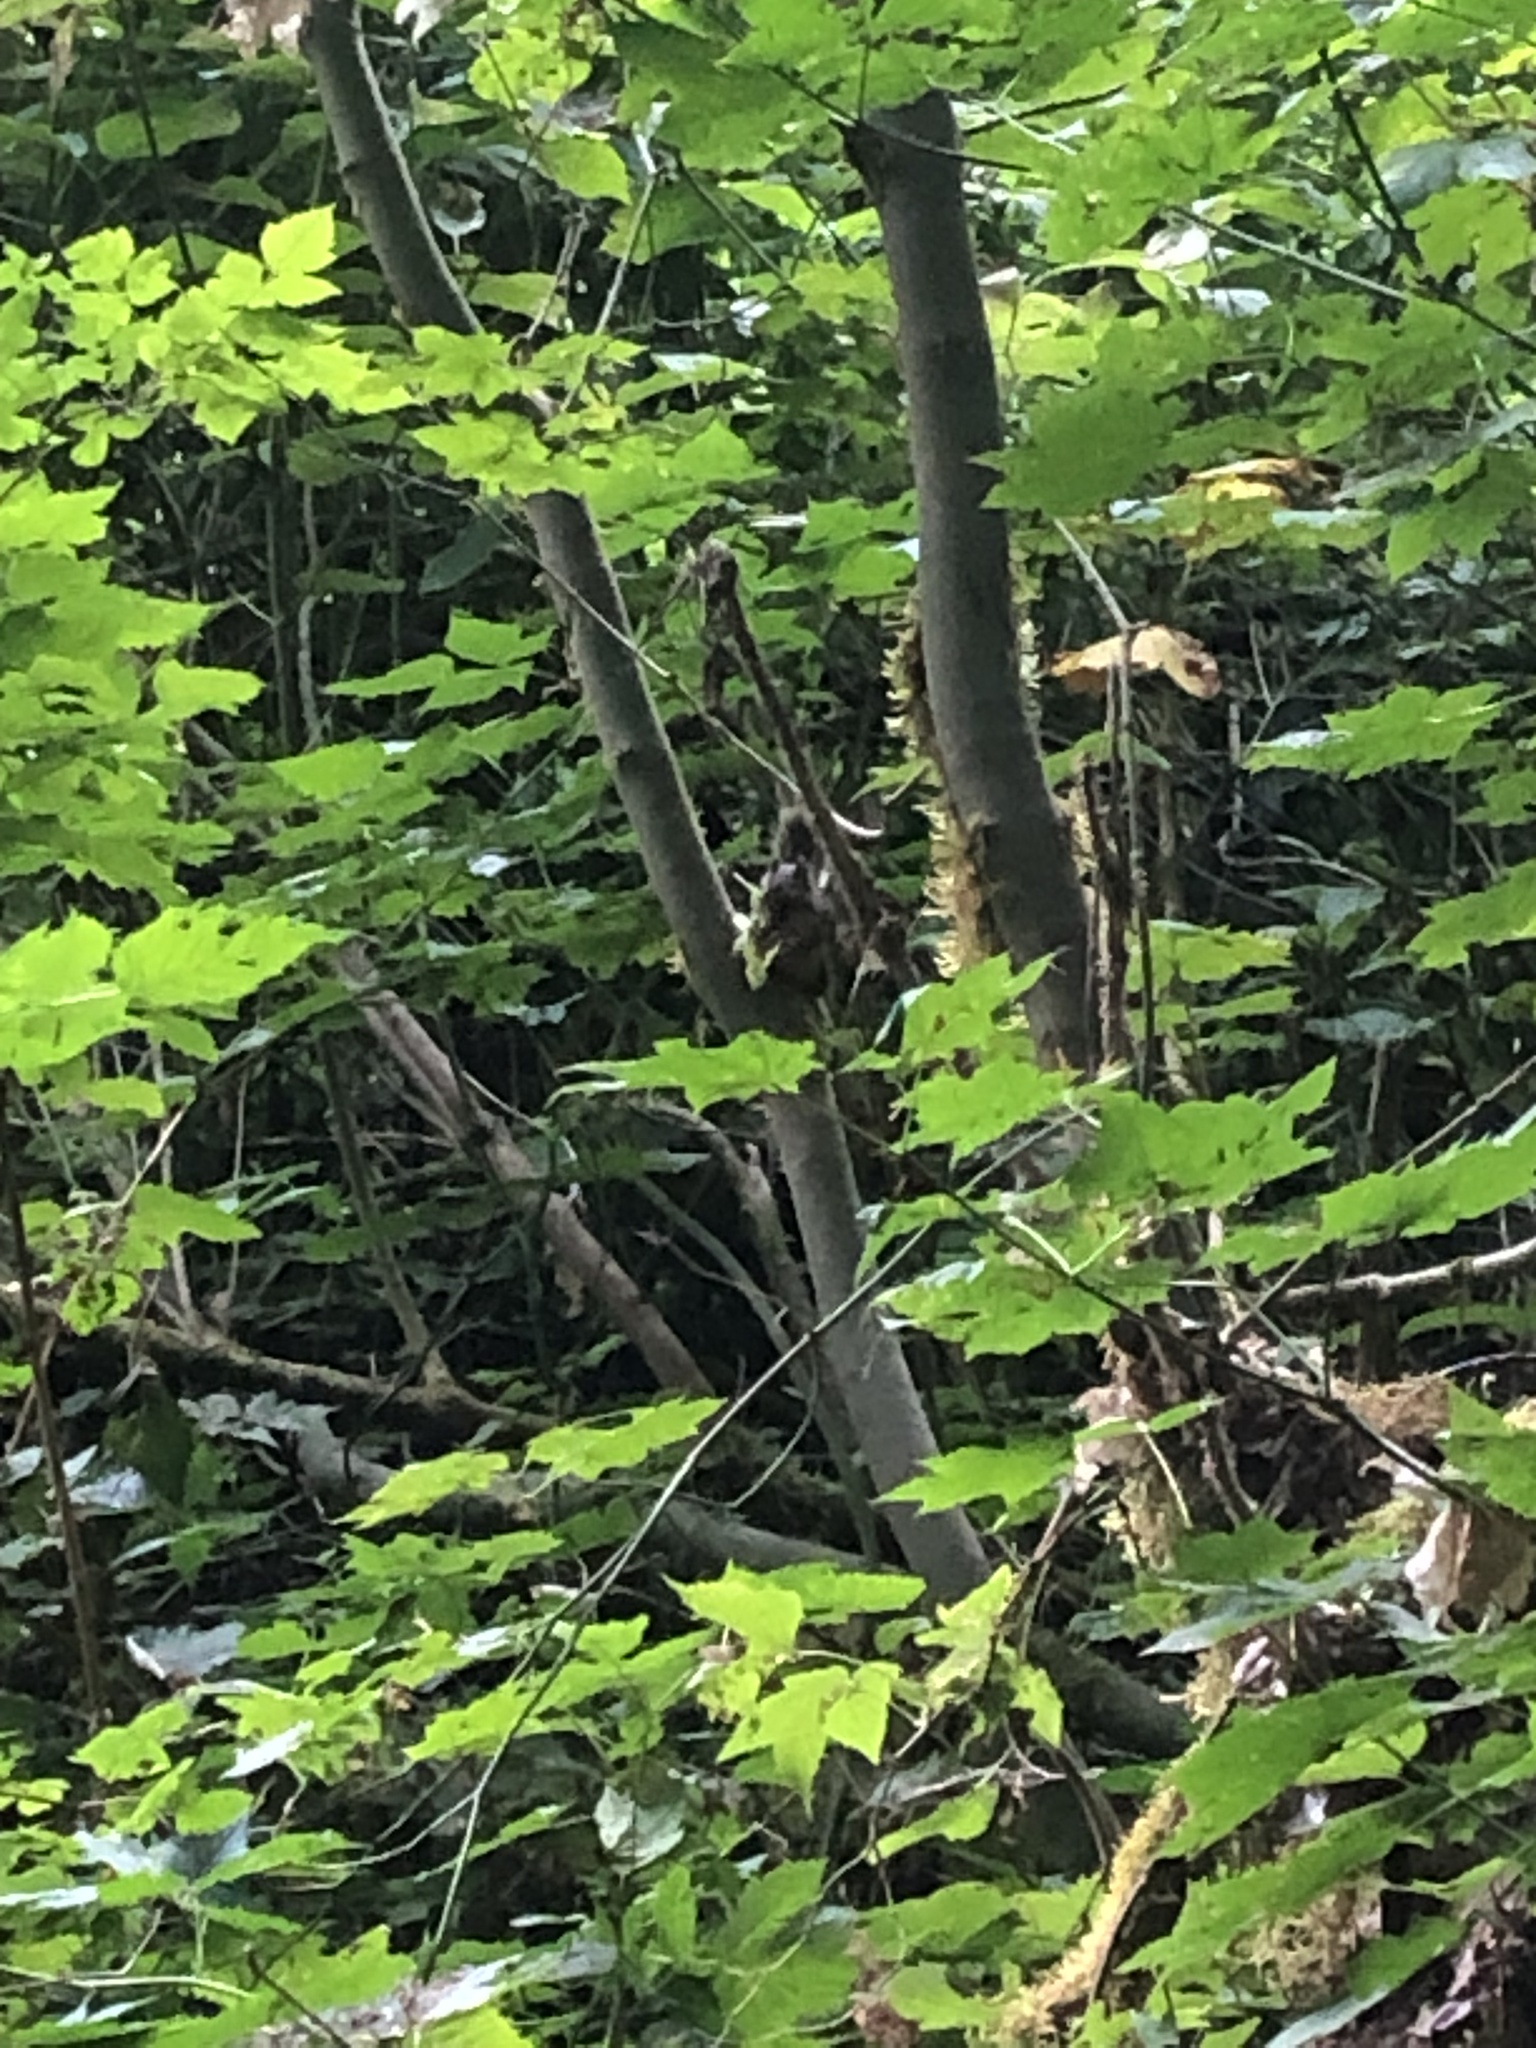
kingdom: Animalia
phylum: Chordata
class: Mammalia
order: Rodentia
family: Sciuridae
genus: Tamiasciurus
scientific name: Tamiasciurus douglasii
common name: Douglas's squirrel
